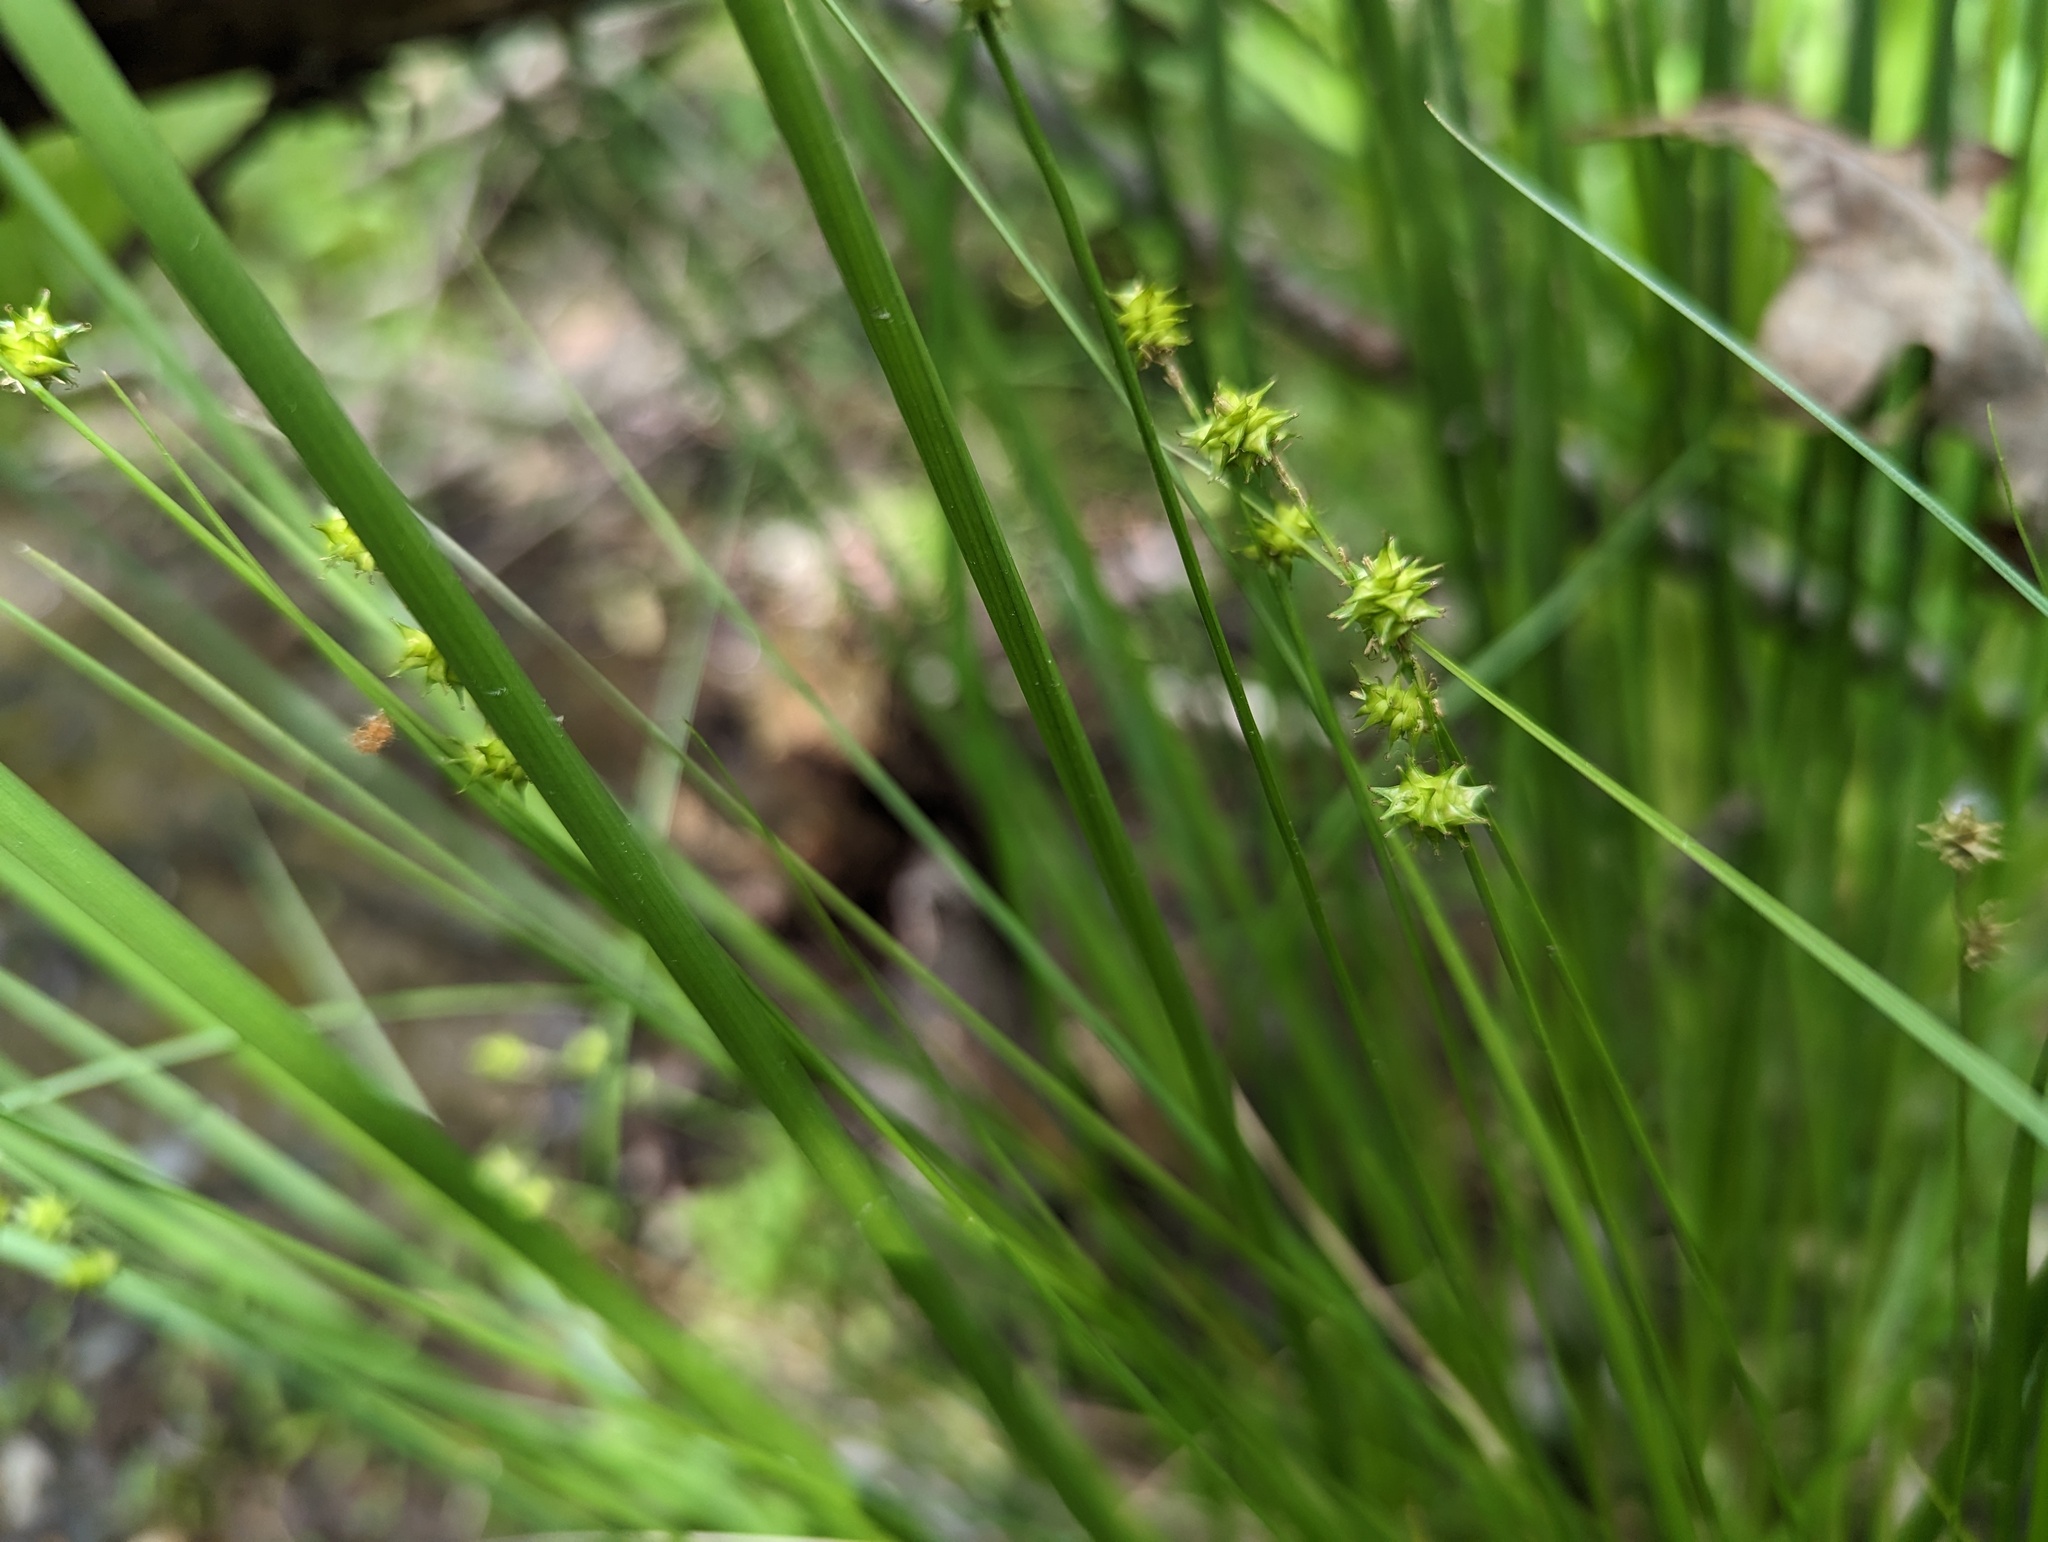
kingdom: Plantae
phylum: Tracheophyta
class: Liliopsida
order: Poales
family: Cyperaceae
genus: Carex
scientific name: Carex atlantica
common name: Atlantic sedge
